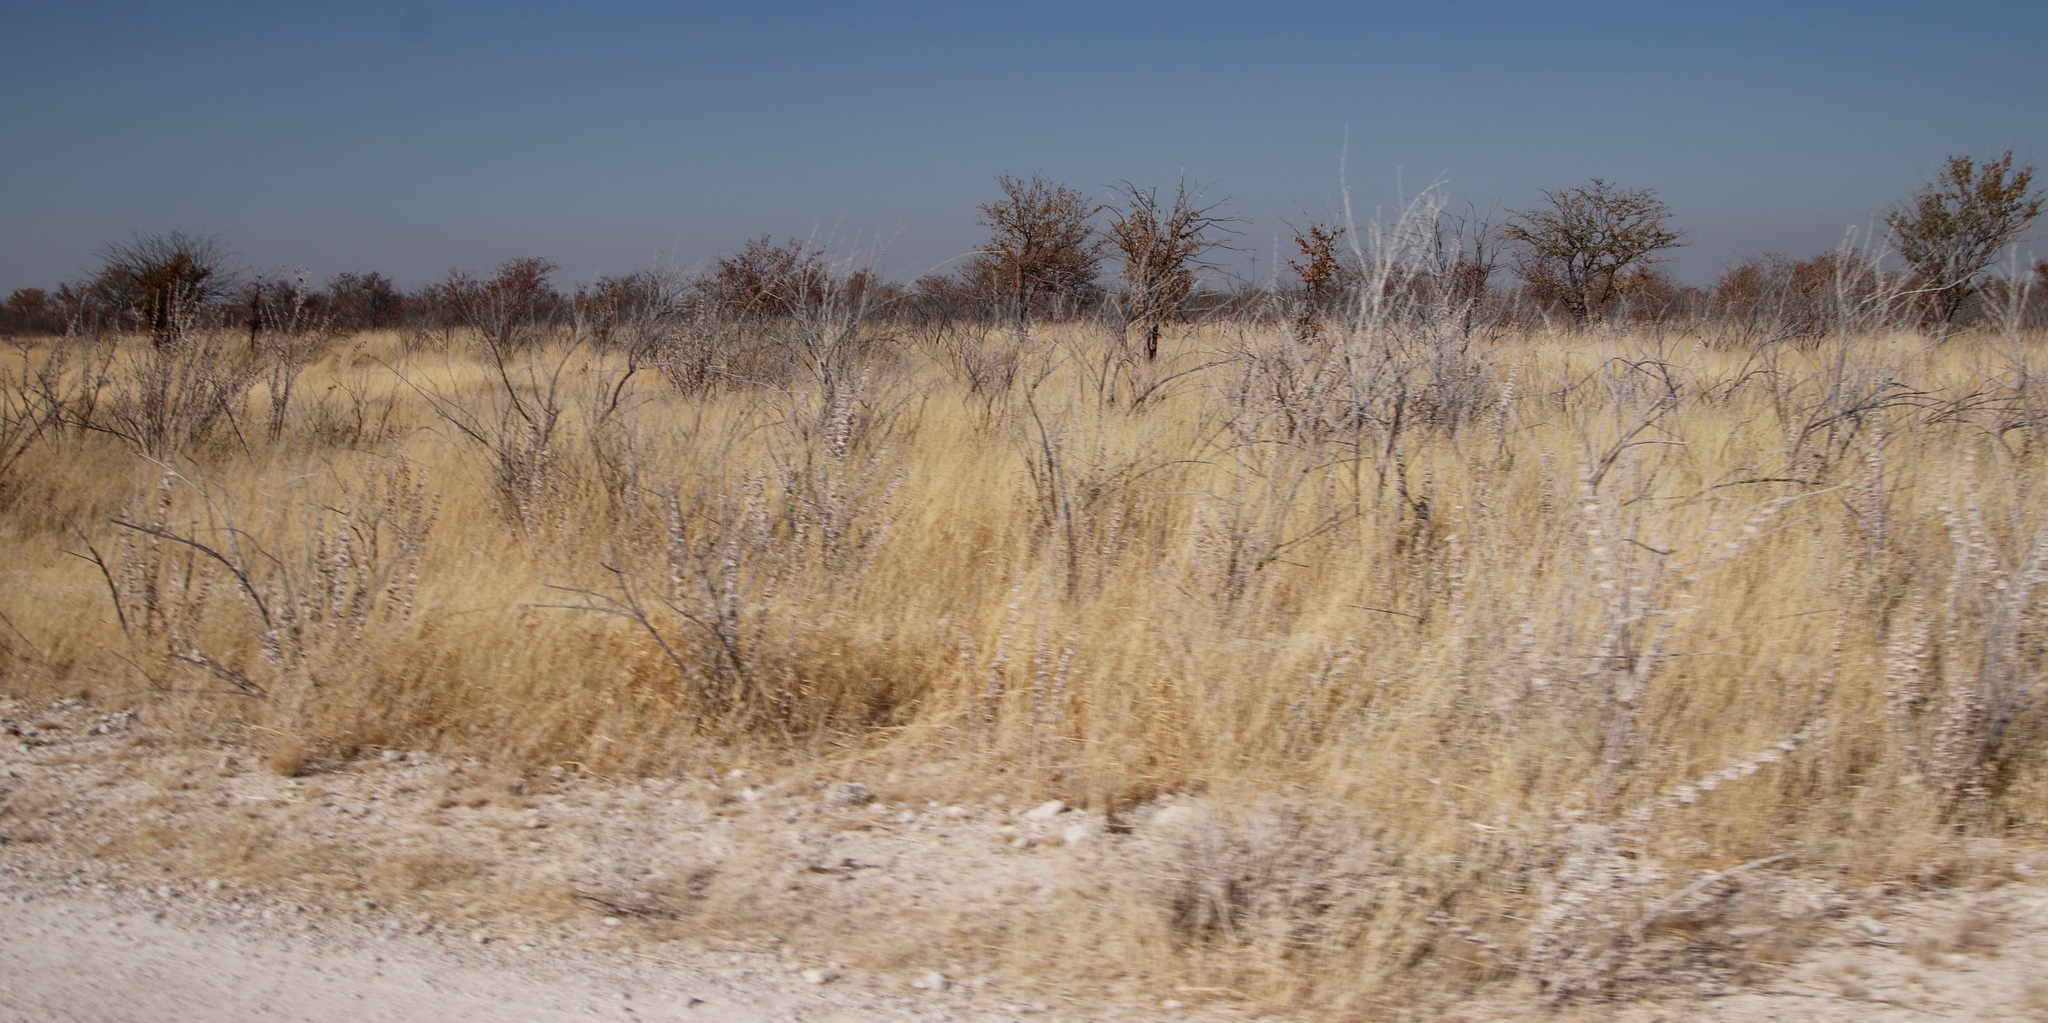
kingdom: Plantae
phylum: Tracheophyta
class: Magnoliopsida
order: Lamiales
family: Bignoniaceae
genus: Catophractes
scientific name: Catophractes alexandri
